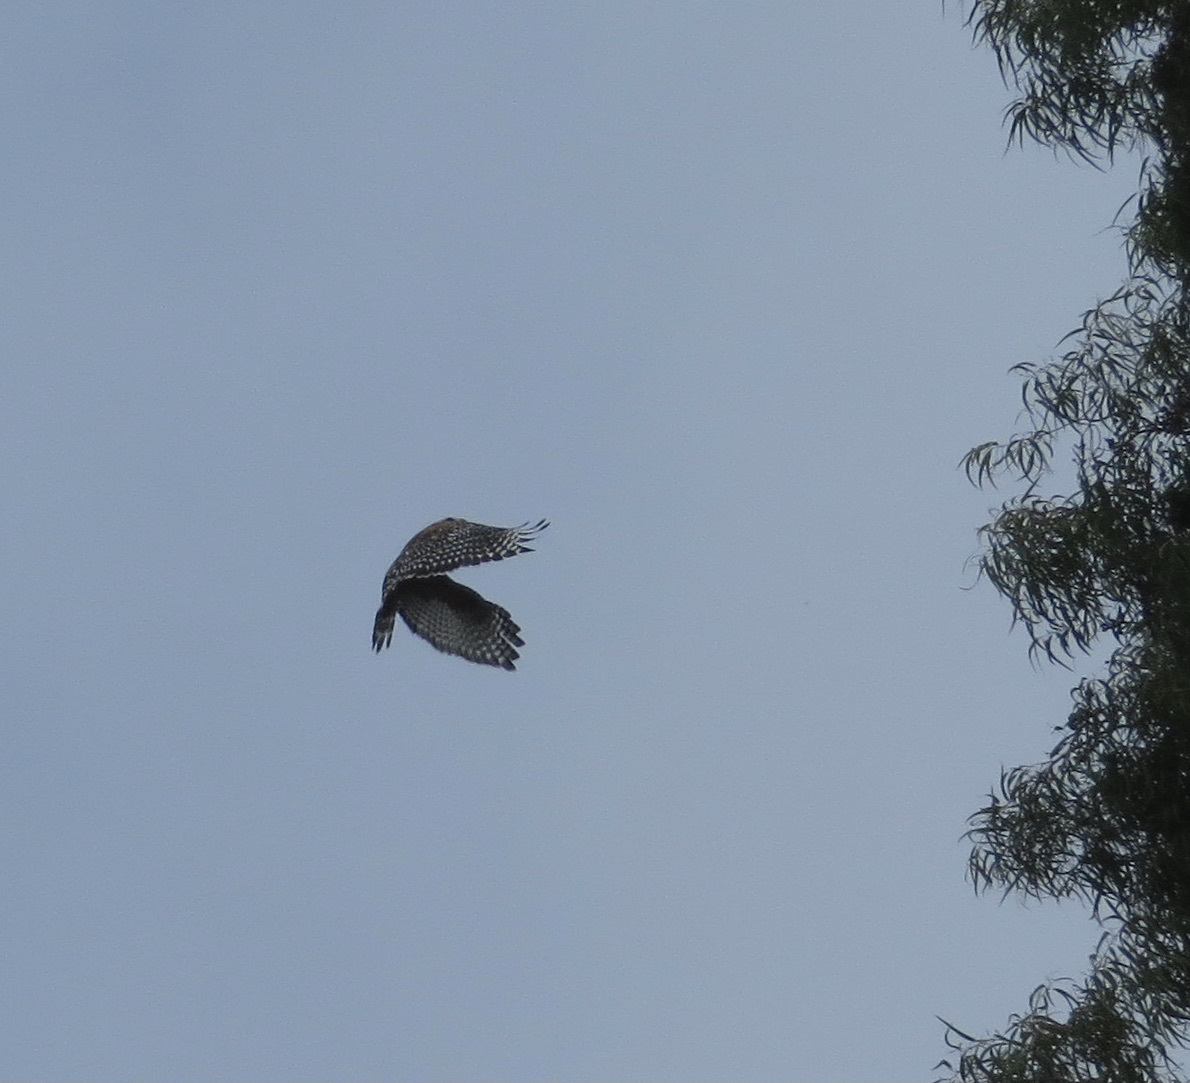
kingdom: Animalia
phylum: Chordata
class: Aves
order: Accipitriformes
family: Accipitridae
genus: Buteo
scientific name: Buteo lineatus
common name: Red-shouldered hawk
